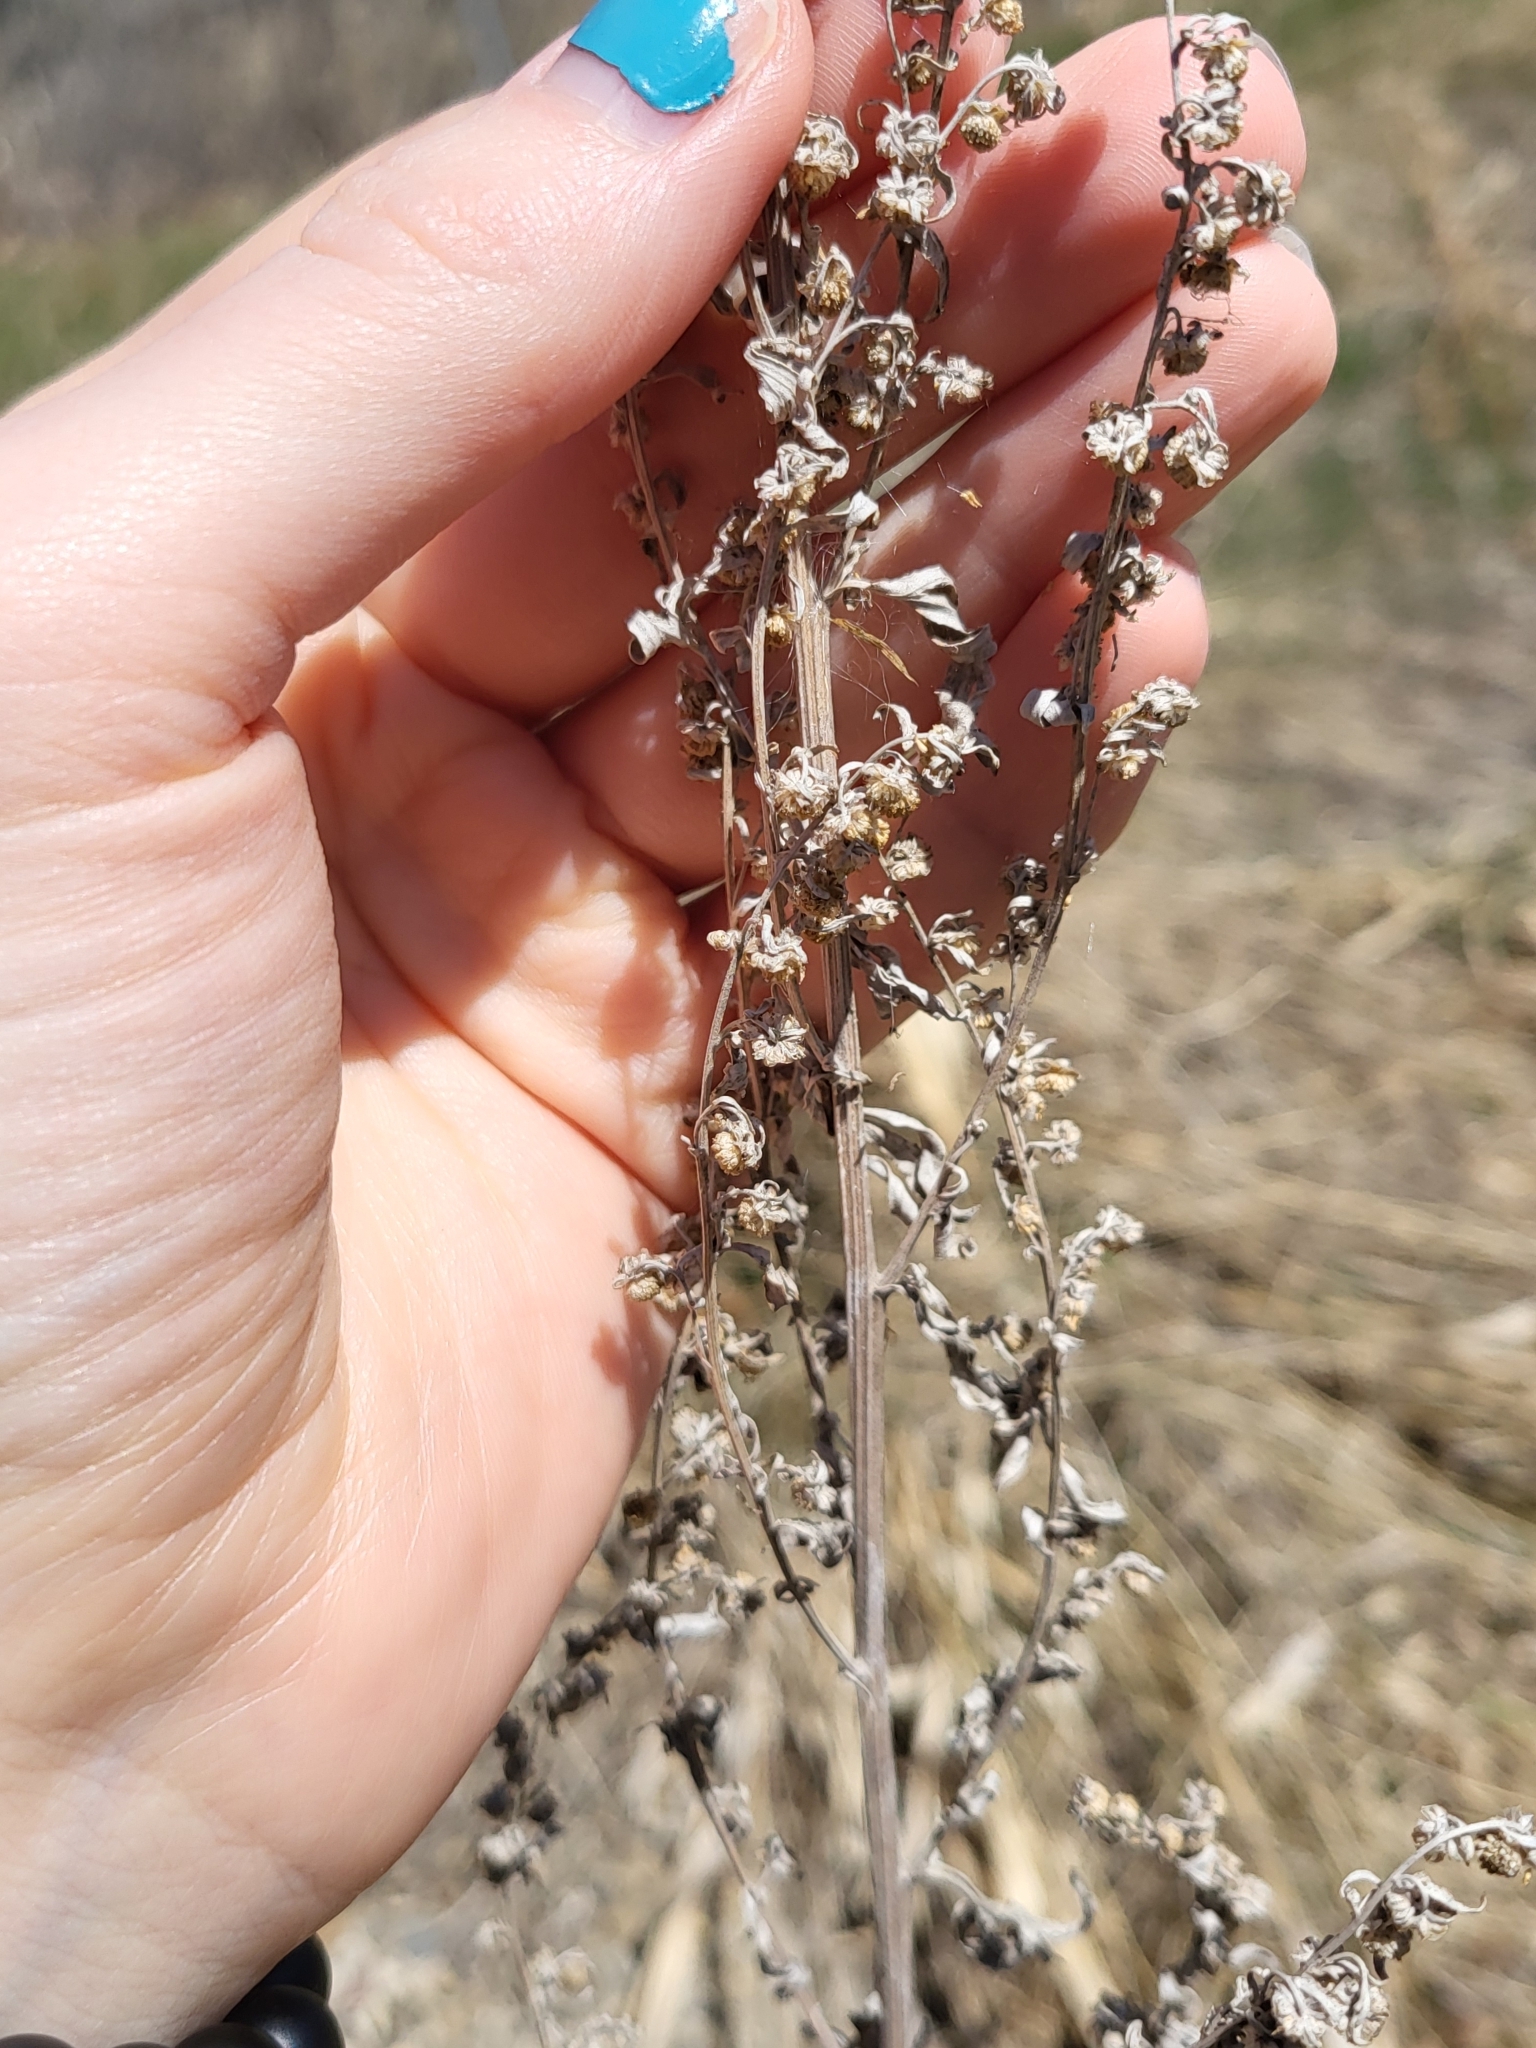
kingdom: Plantae
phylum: Tracheophyta
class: Magnoliopsida
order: Asterales
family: Asteraceae
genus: Artemisia
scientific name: Artemisia absinthium
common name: Wormwood
